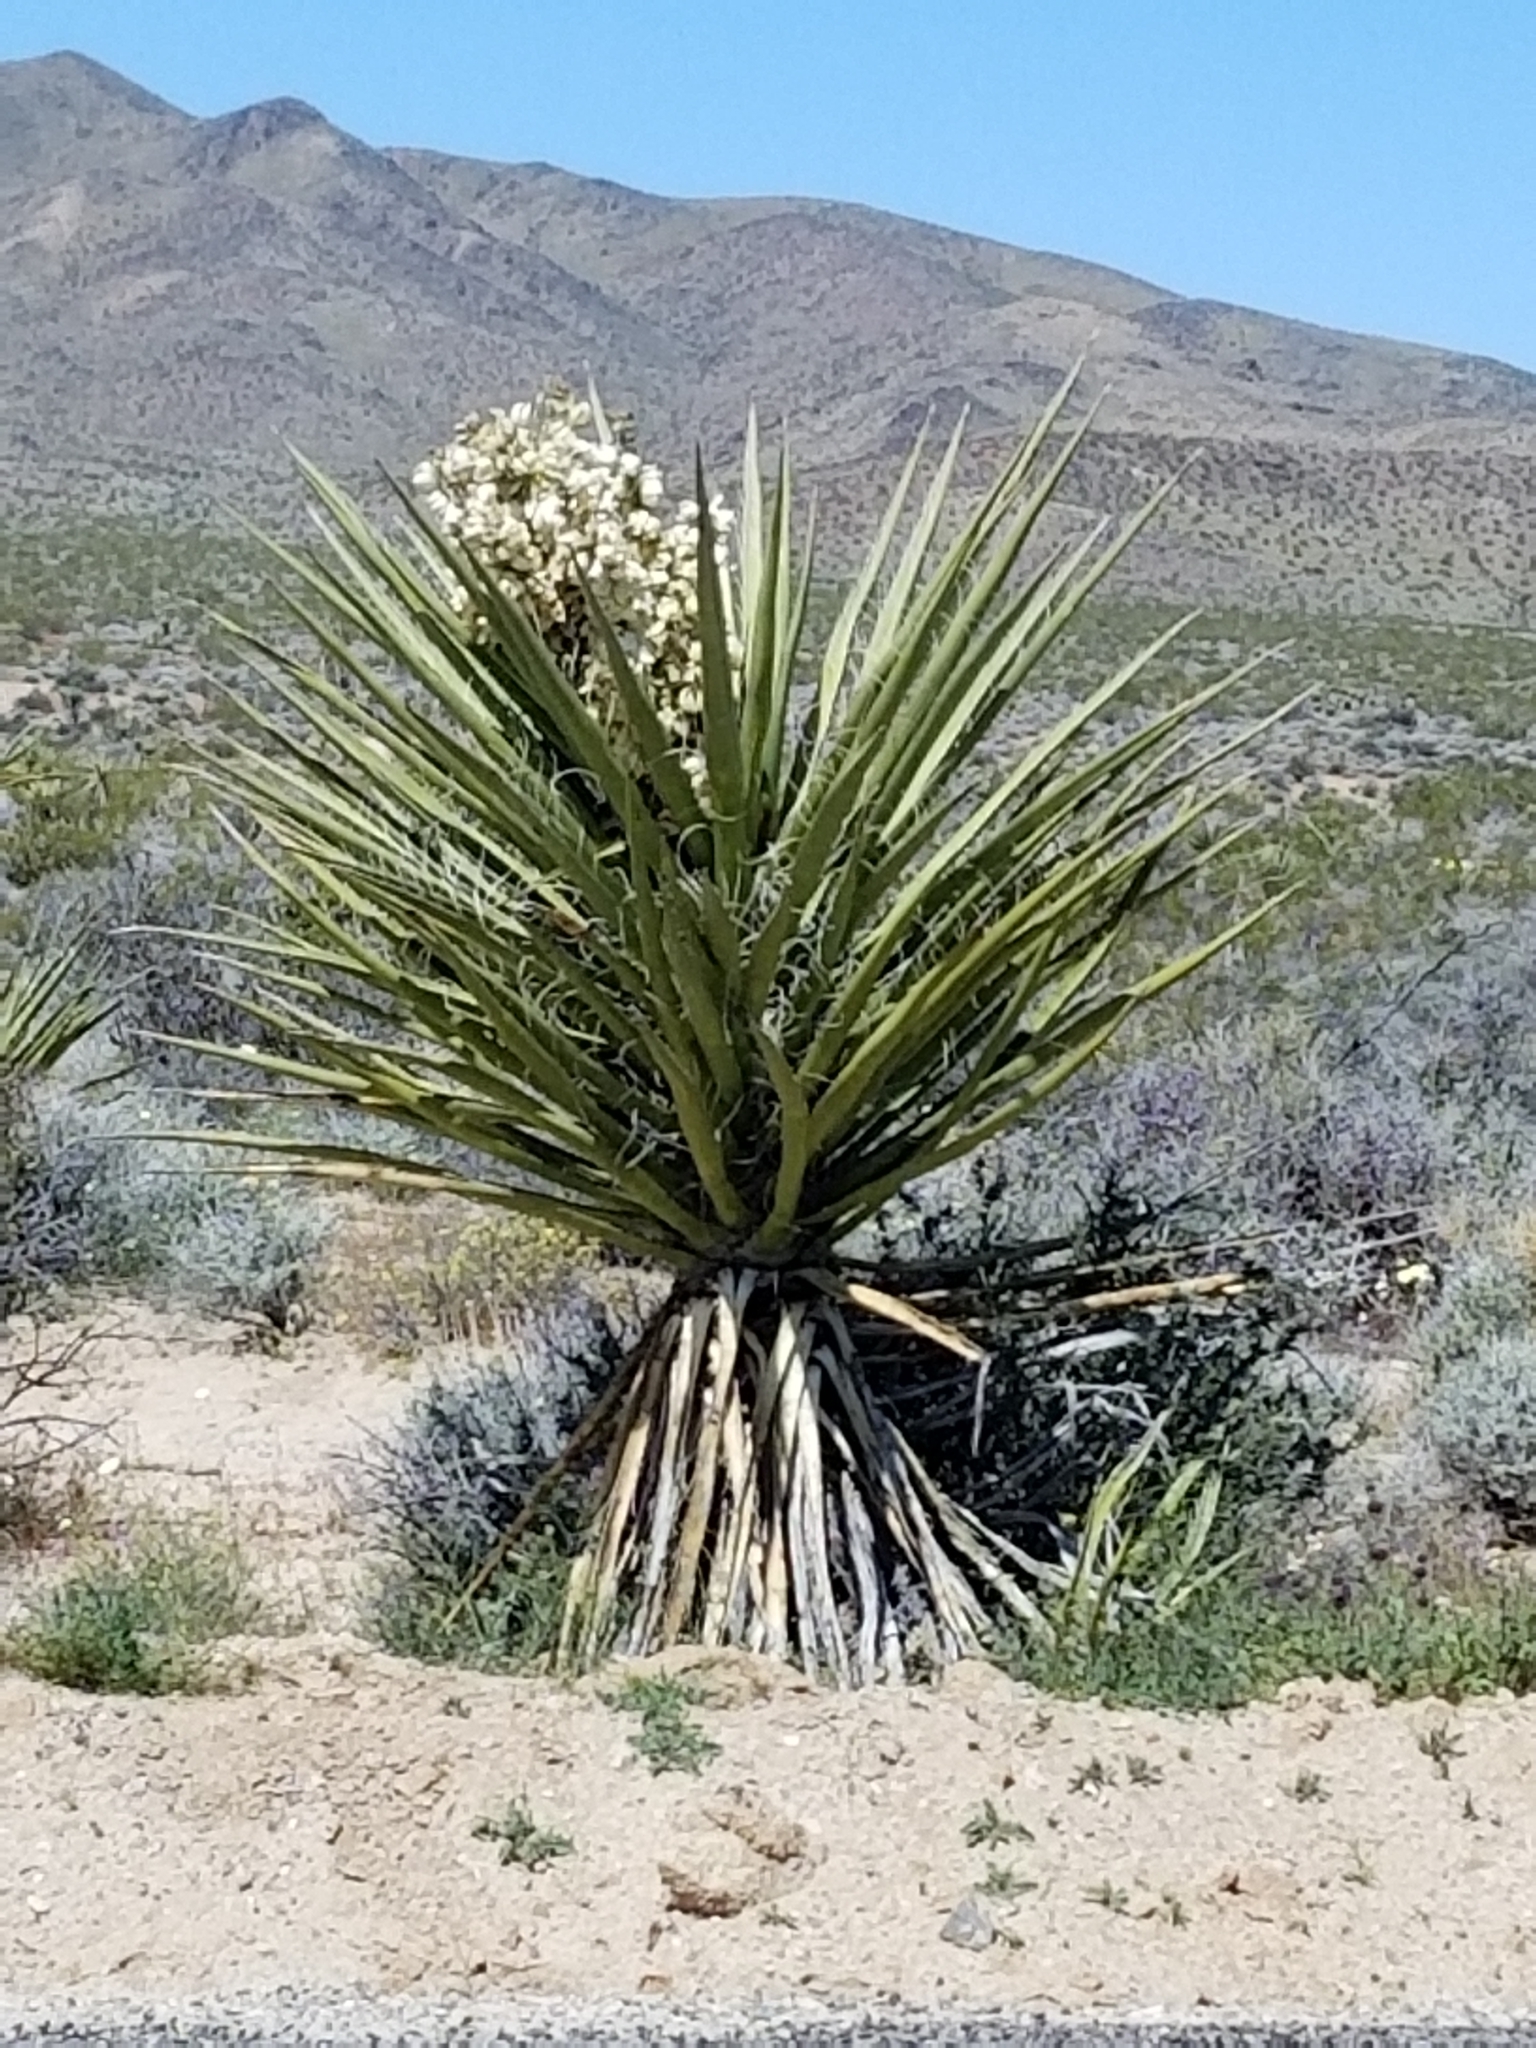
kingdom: Plantae
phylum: Tracheophyta
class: Liliopsida
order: Asparagales
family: Asparagaceae
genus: Yucca
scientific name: Yucca schidigera
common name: Mojave yucca
